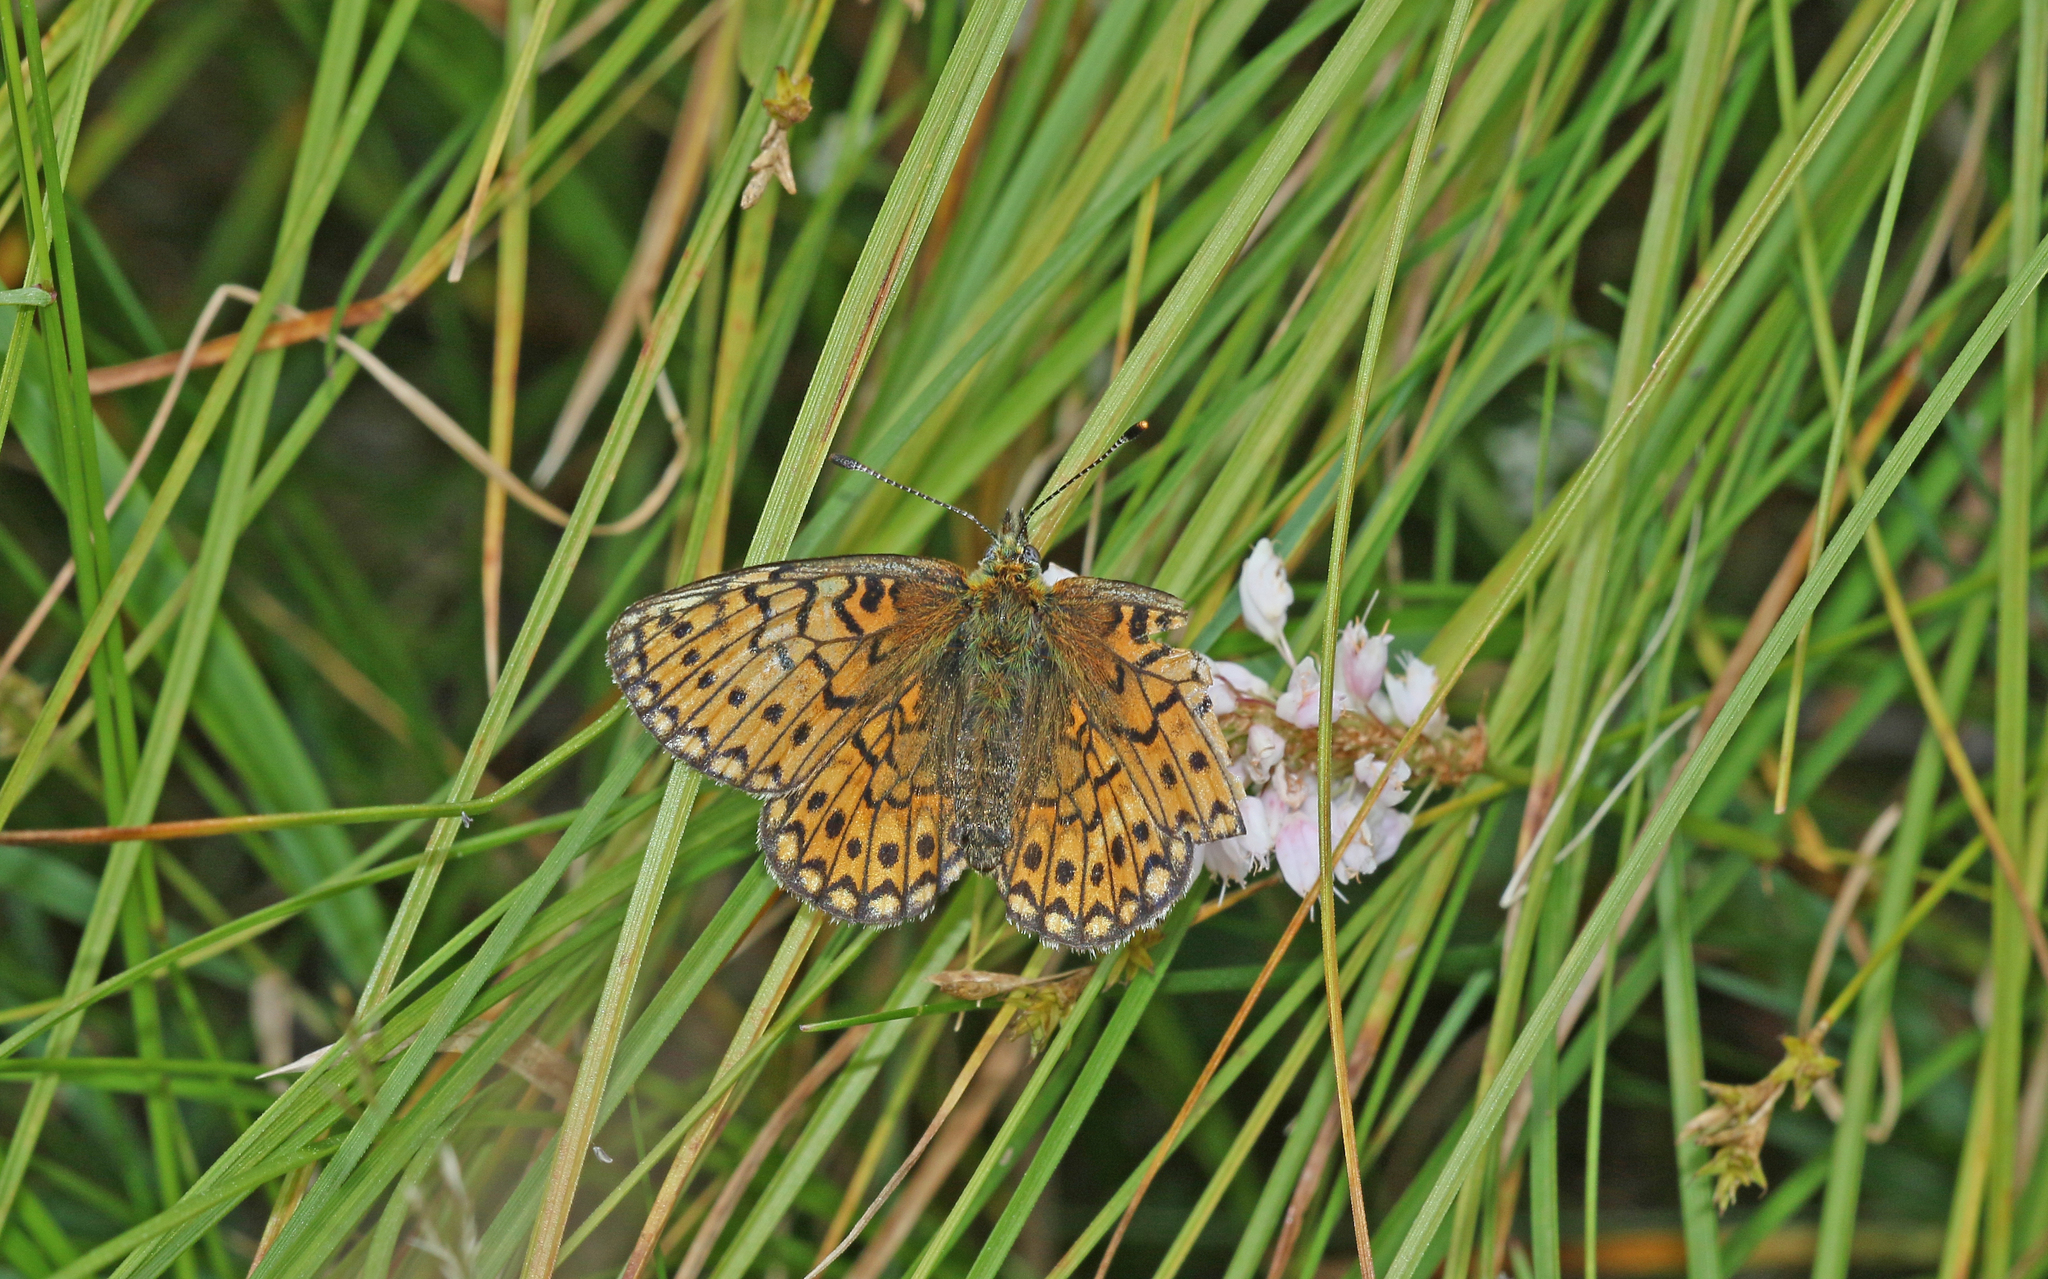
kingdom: Animalia
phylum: Arthropoda
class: Insecta
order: Lepidoptera
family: Nymphalidae
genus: Boloria
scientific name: Boloria eunomia
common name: Bog fritillary
